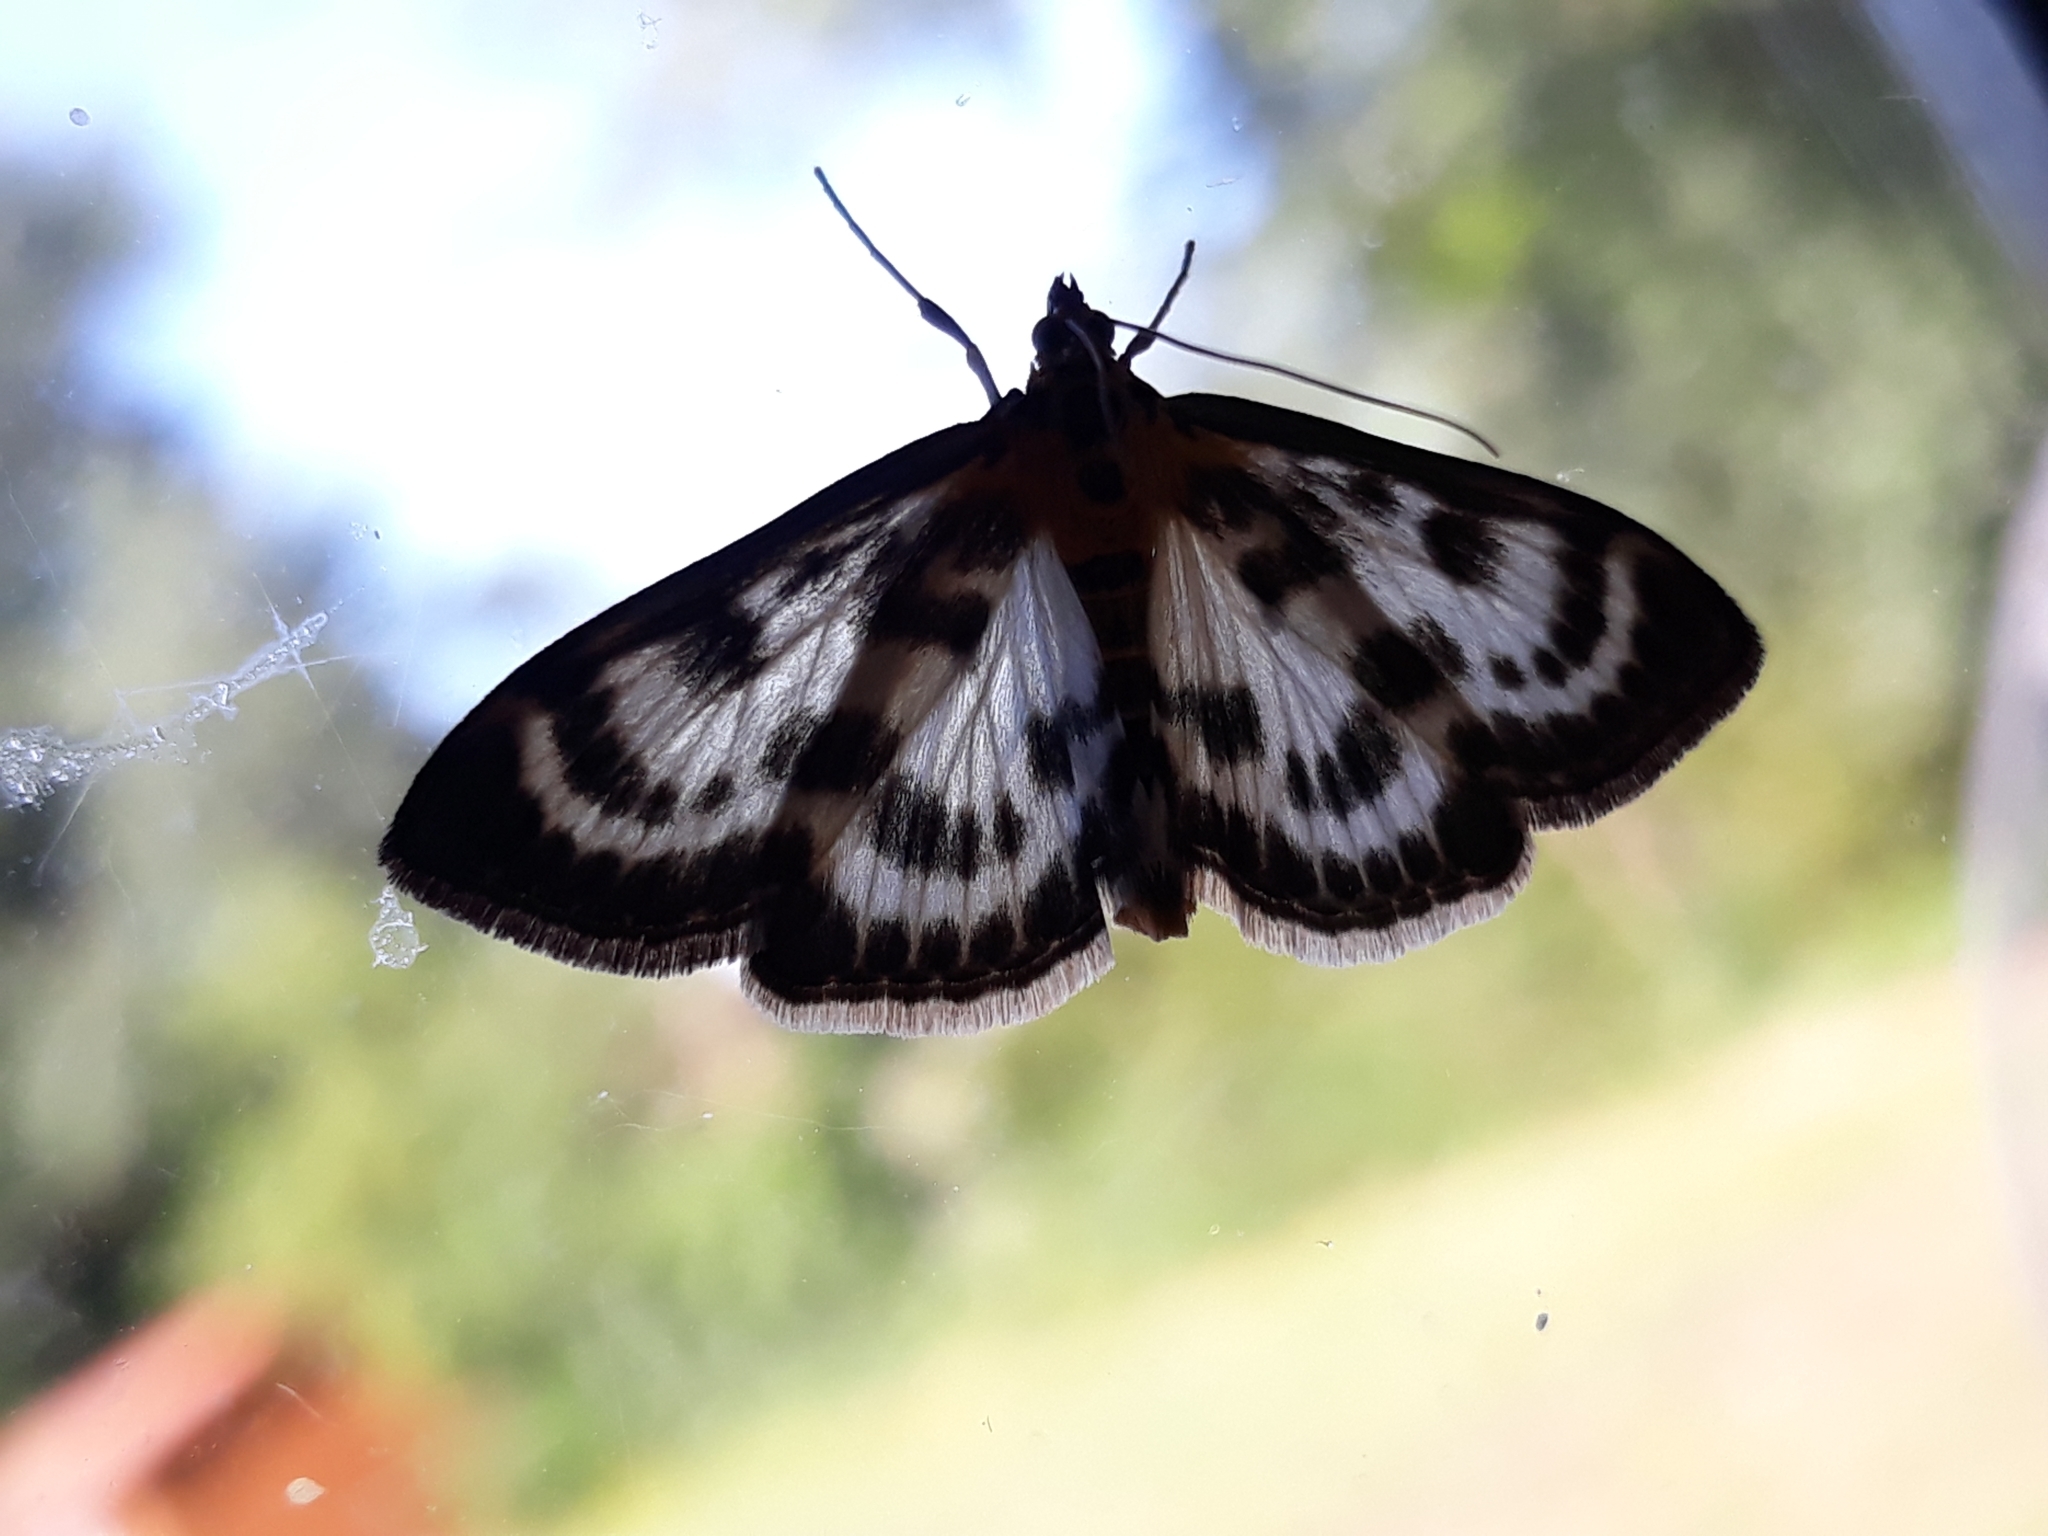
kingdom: Animalia
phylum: Arthropoda
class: Insecta
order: Lepidoptera
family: Crambidae
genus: Anania
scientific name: Anania hortulata
